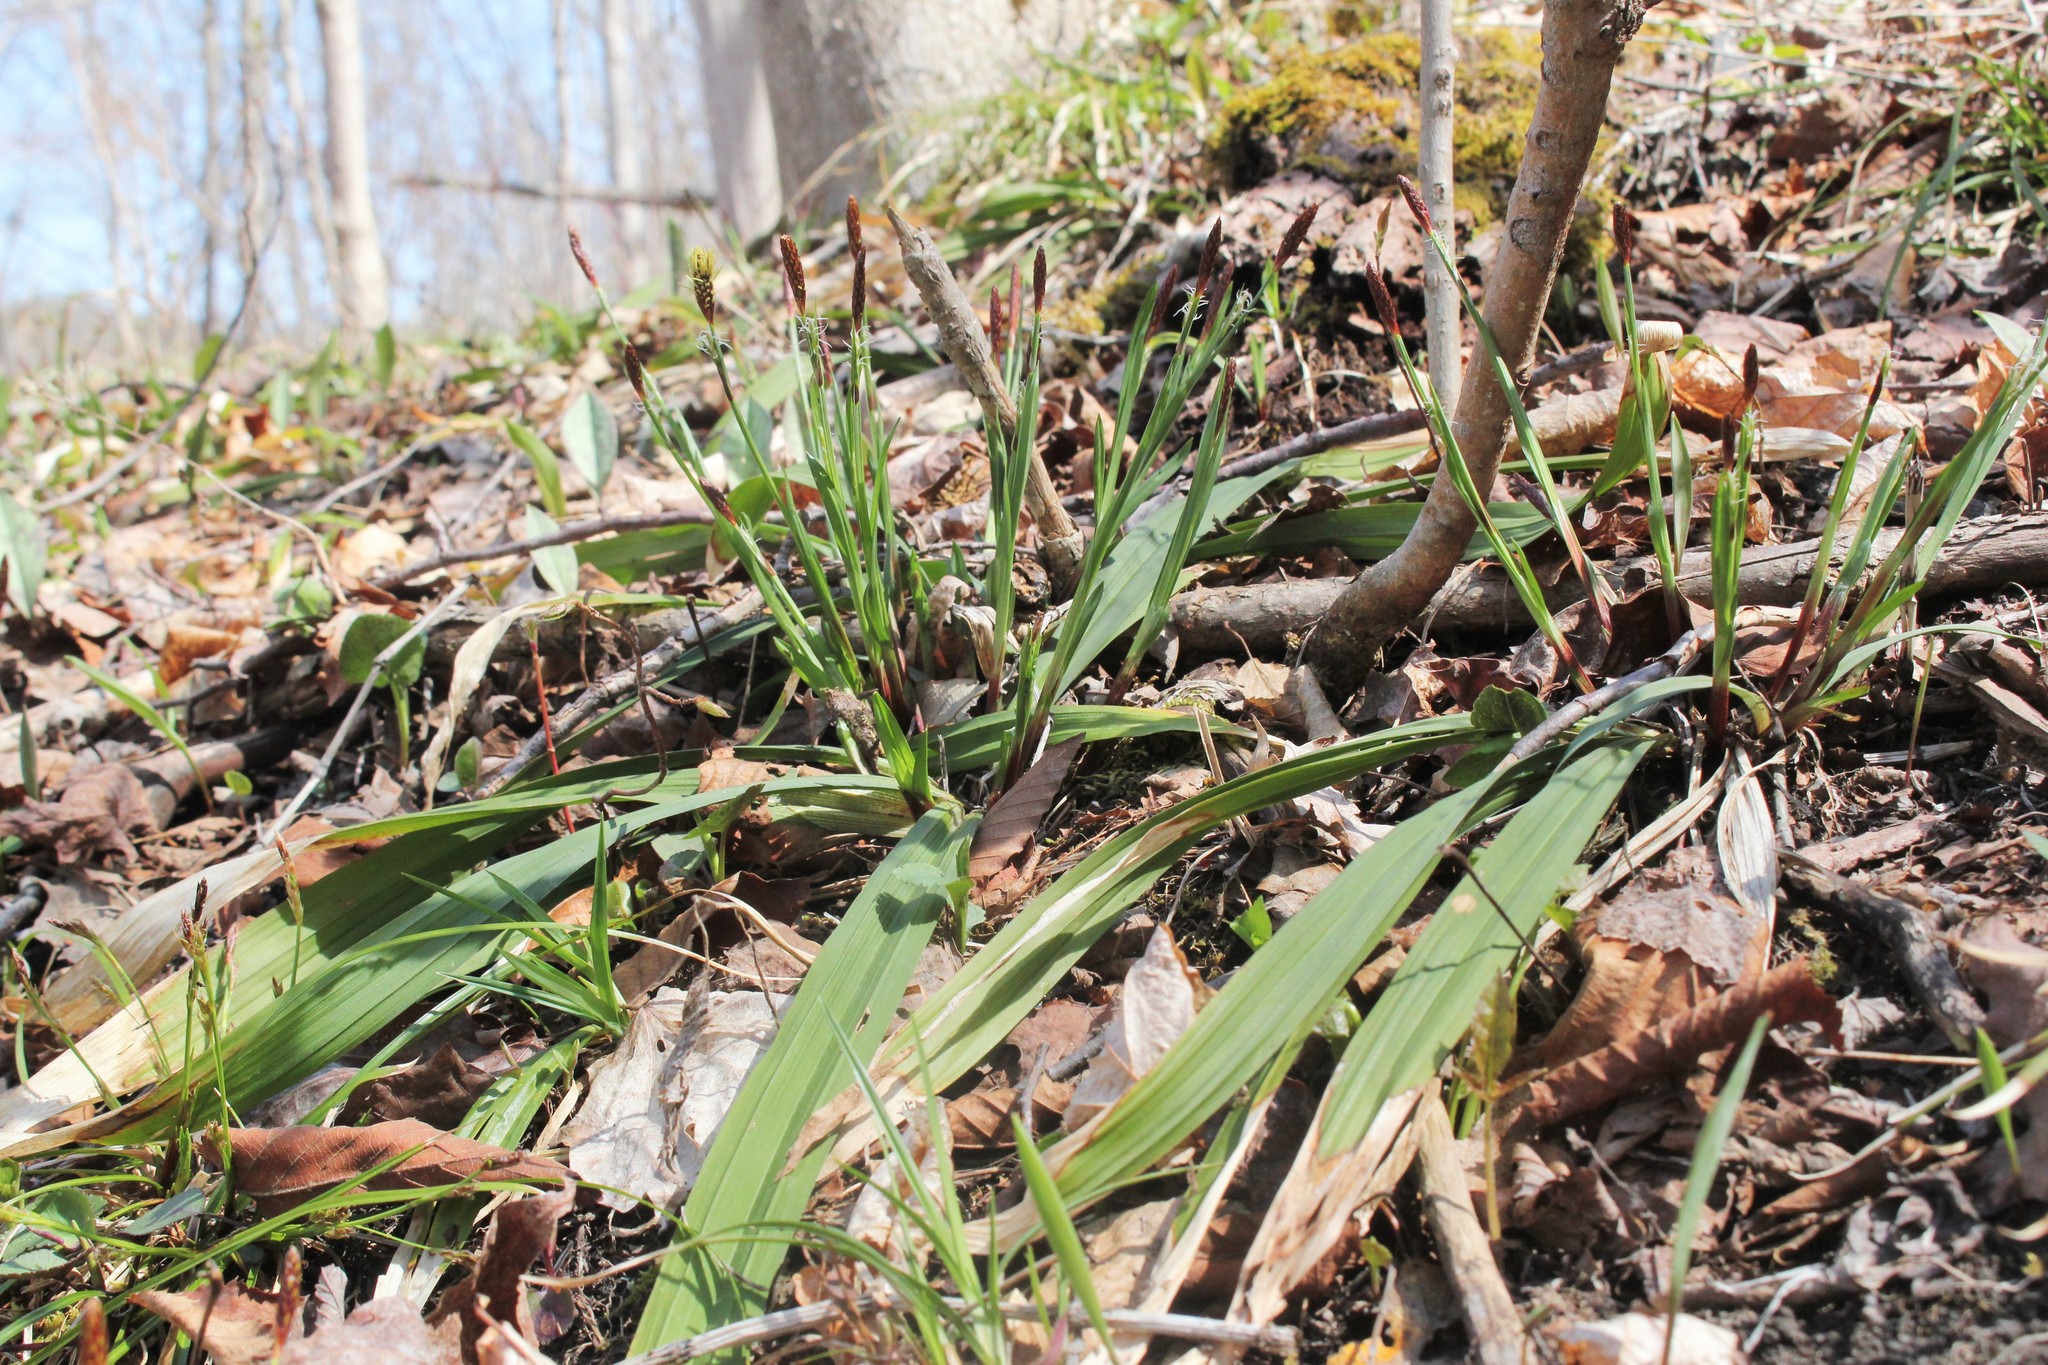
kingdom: Plantae
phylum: Tracheophyta
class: Liliopsida
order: Poales
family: Cyperaceae
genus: Carex
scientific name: Carex careyana
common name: Carey's sedge
